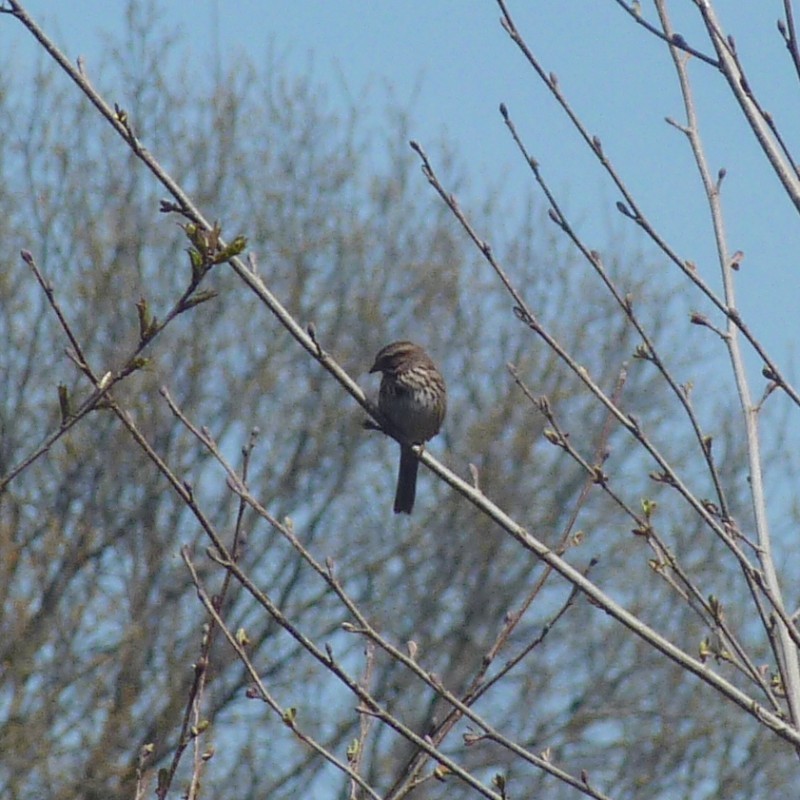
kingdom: Animalia
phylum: Chordata
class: Aves
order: Passeriformes
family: Passerellidae
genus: Melospiza
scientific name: Melospiza melodia
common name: Song sparrow
